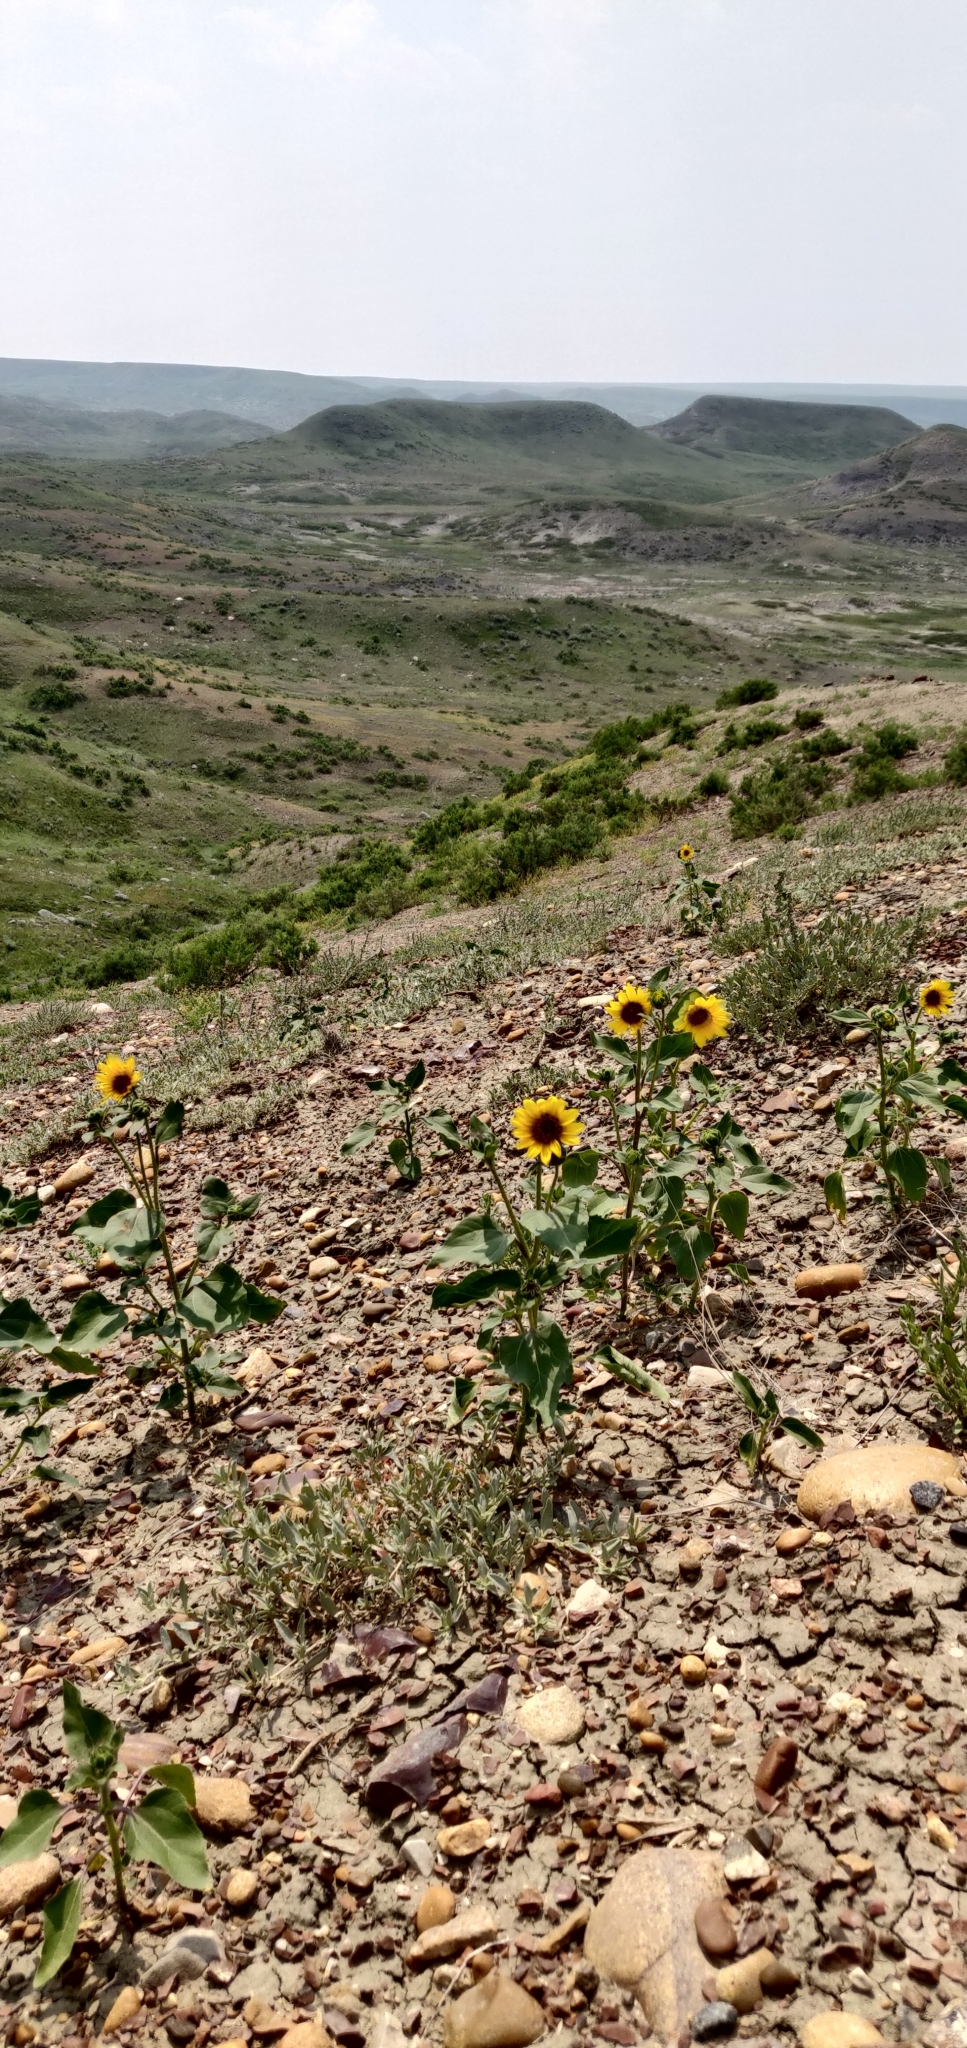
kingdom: Plantae
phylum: Tracheophyta
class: Magnoliopsida
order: Asterales
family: Asteraceae
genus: Helianthus
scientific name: Helianthus annuus
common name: Sunflower
